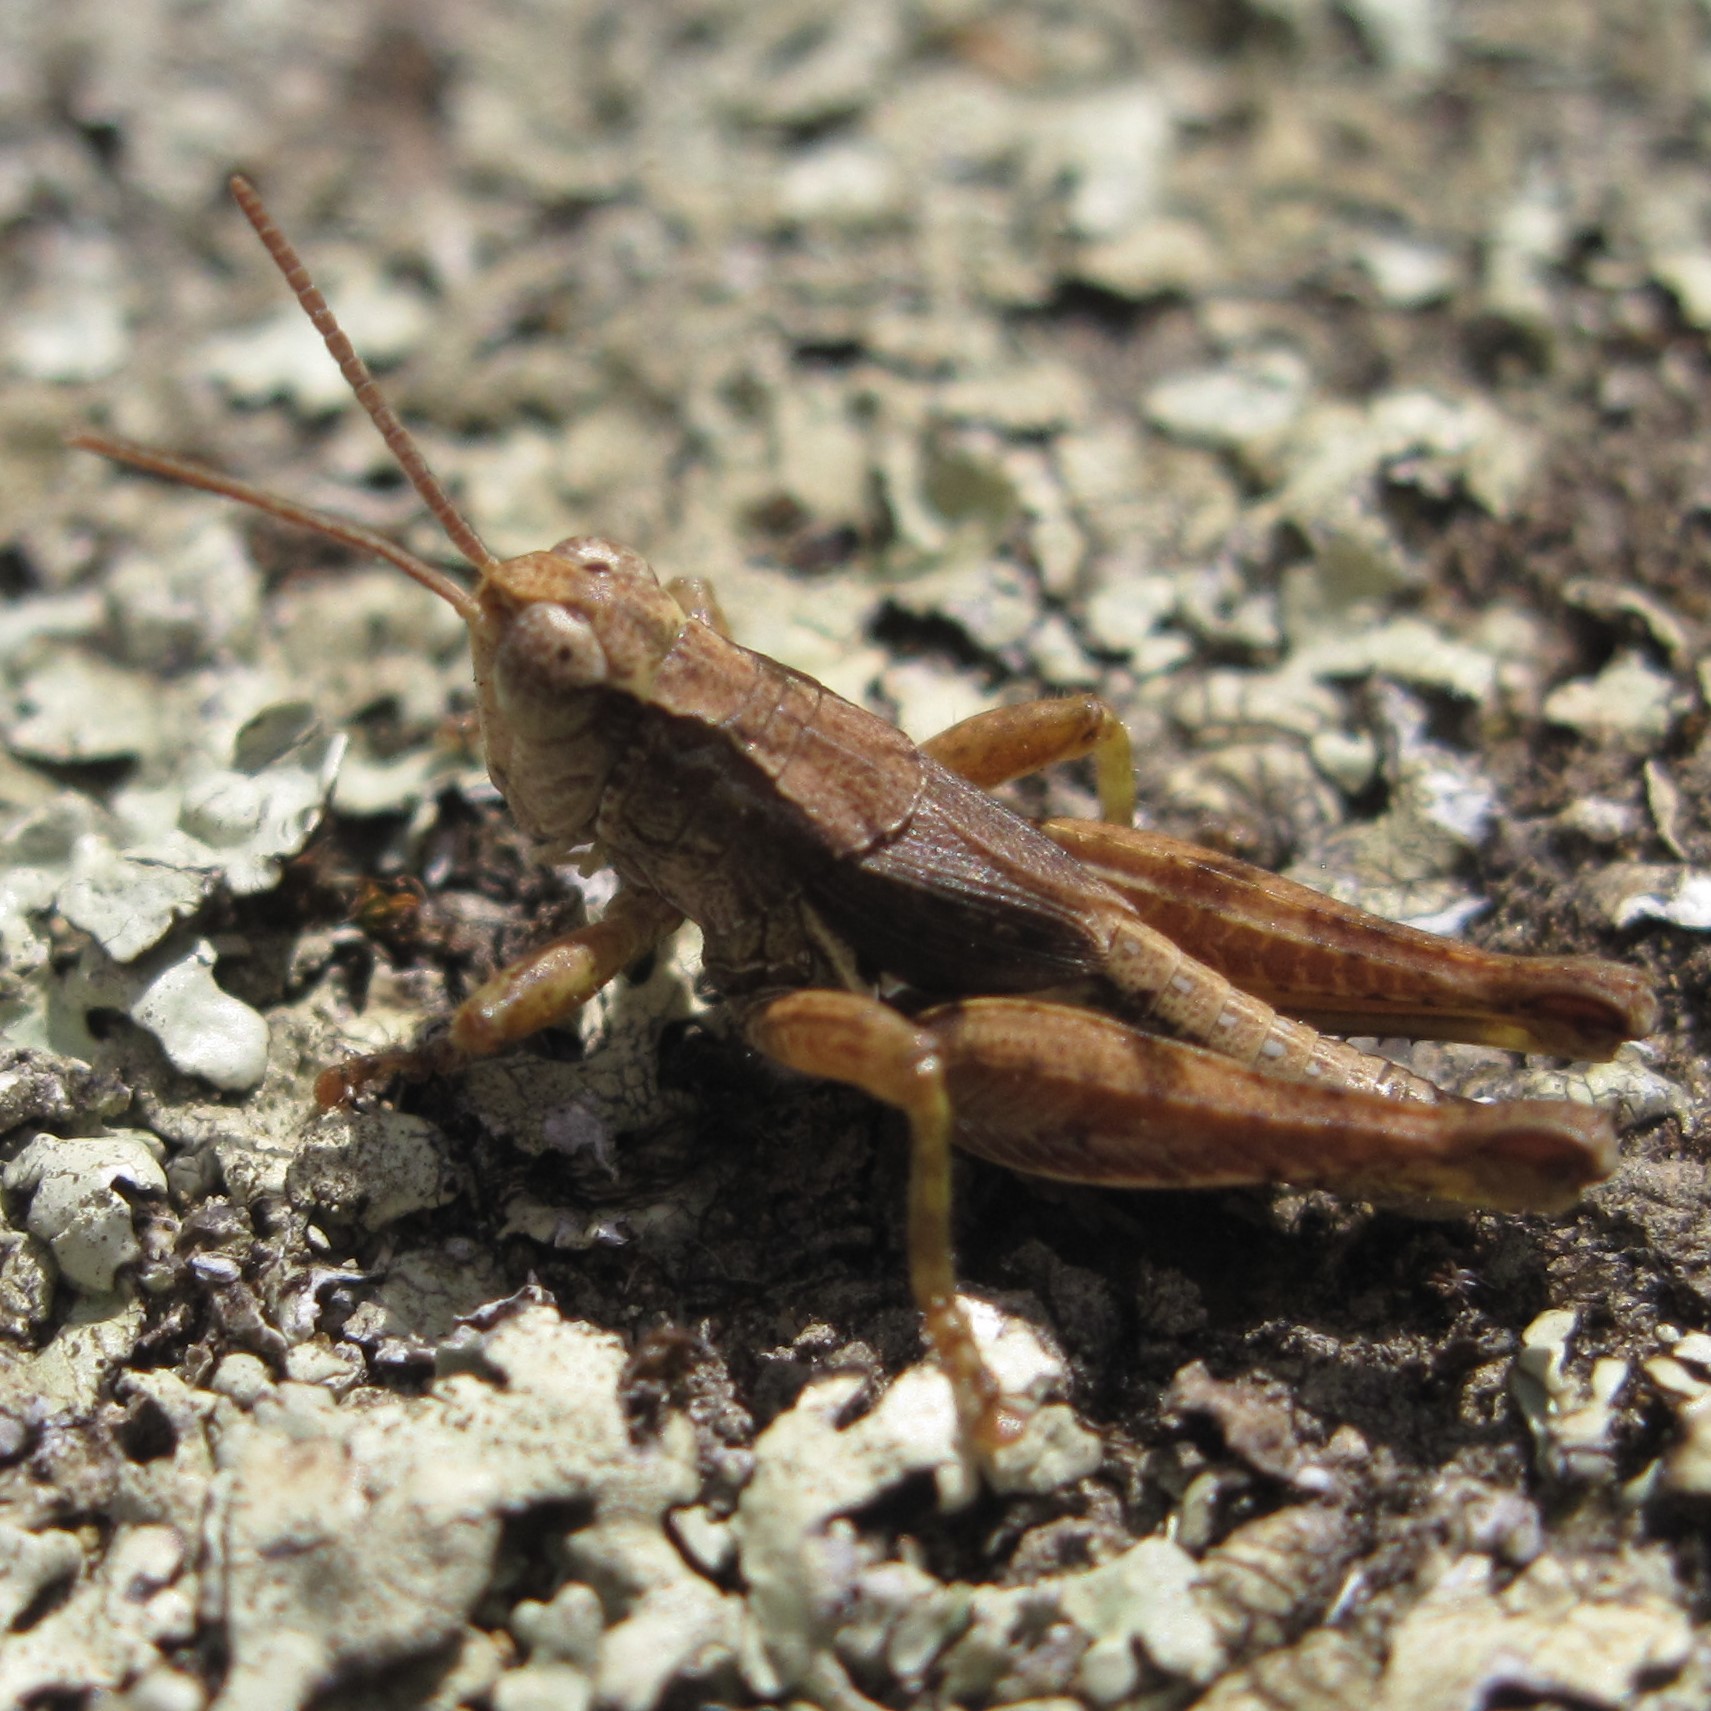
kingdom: Animalia
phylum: Arthropoda
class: Insecta
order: Orthoptera
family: Acrididae
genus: Phaulacridium
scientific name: Phaulacridium marginale
